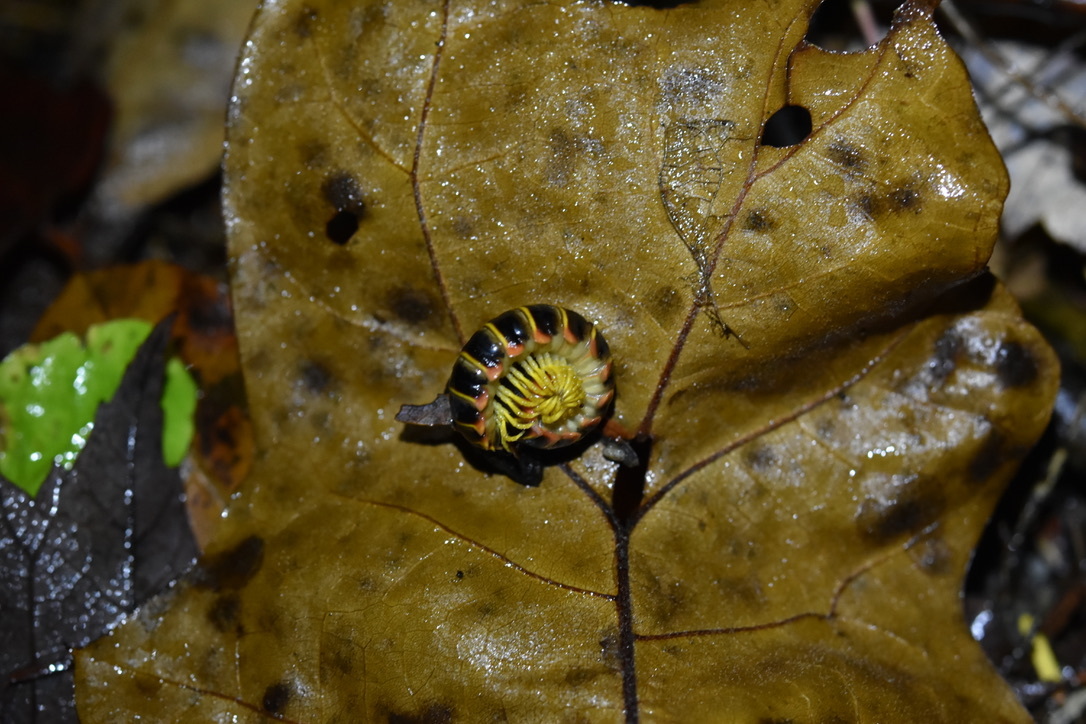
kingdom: Animalia
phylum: Arthropoda
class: Diplopoda
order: Polydesmida
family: Xystodesmidae
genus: Apheloria
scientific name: Apheloria virginiensis
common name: Black-and-gold flat millipede
